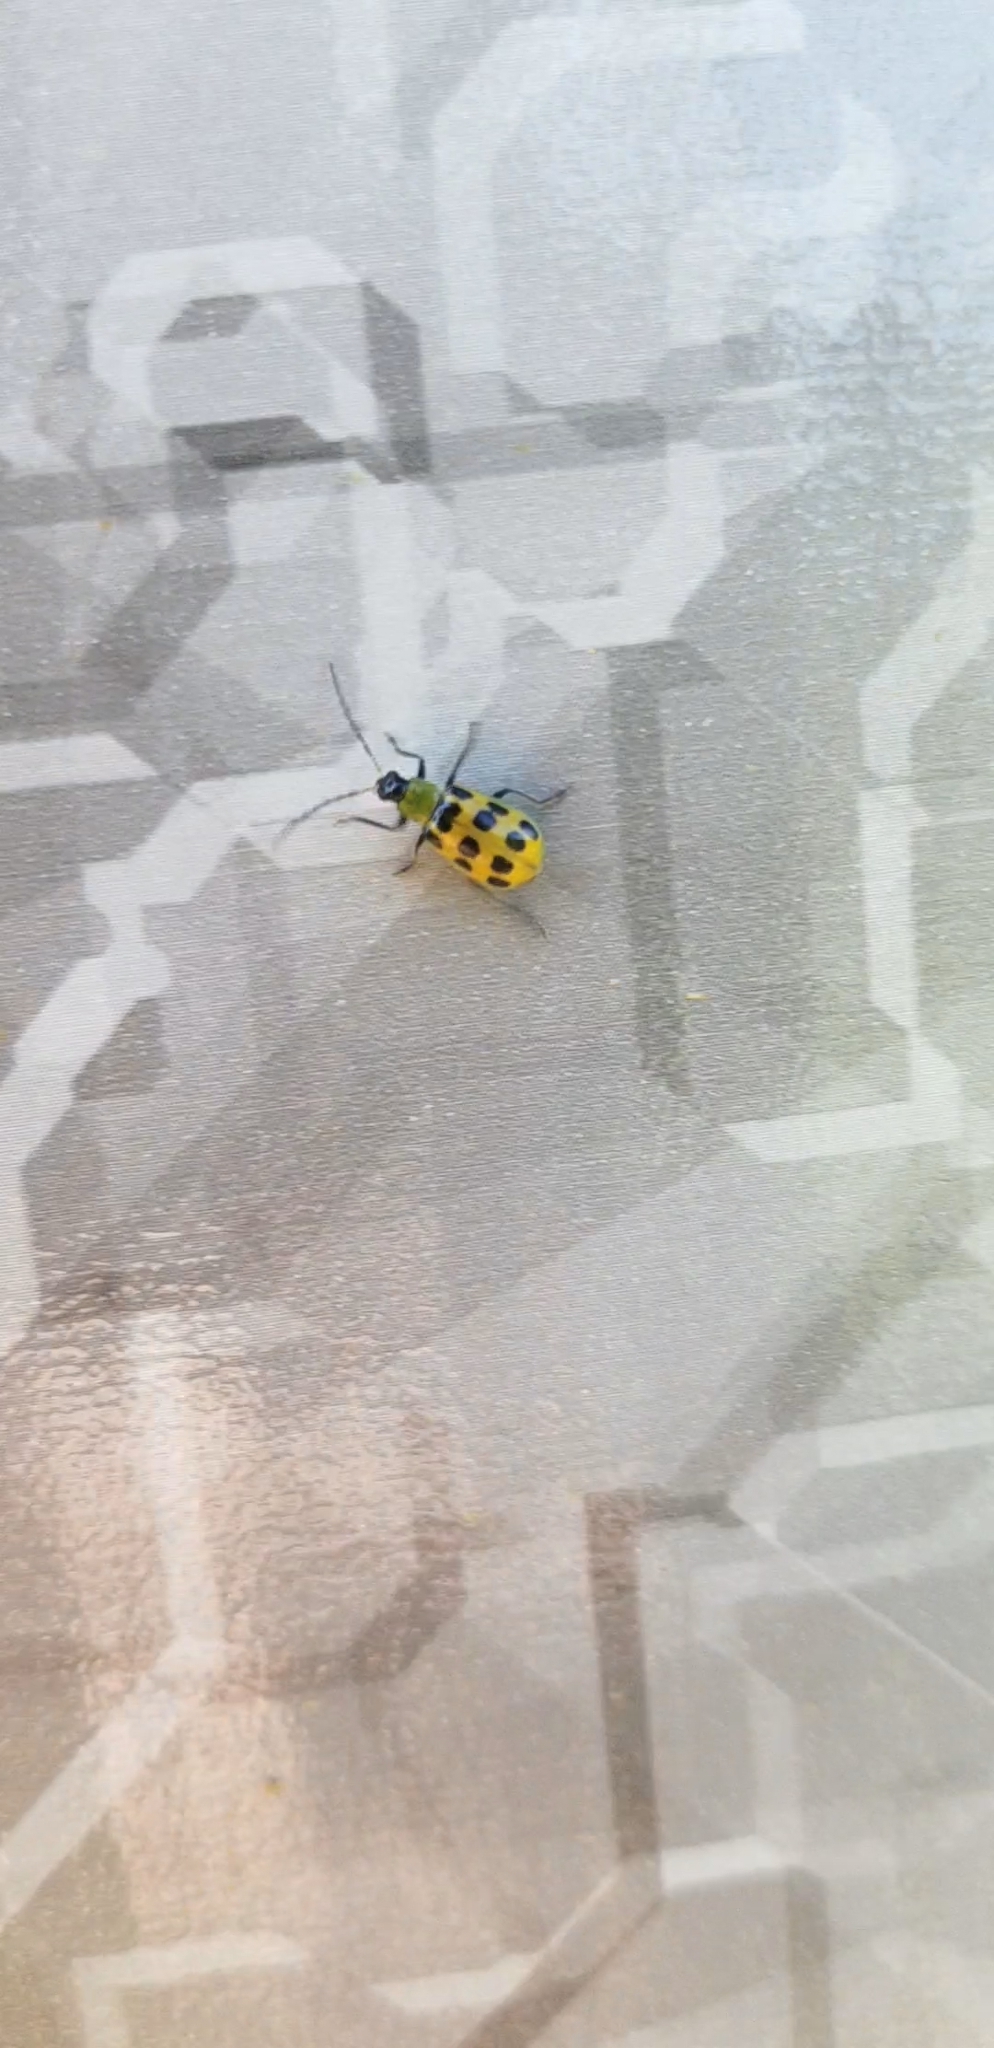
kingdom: Animalia
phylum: Arthropoda
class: Insecta
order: Coleoptera
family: Chrysomelidae
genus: Diabrotica
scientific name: Diabrotica undecimpunctata
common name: Spotted cucumber beetle
